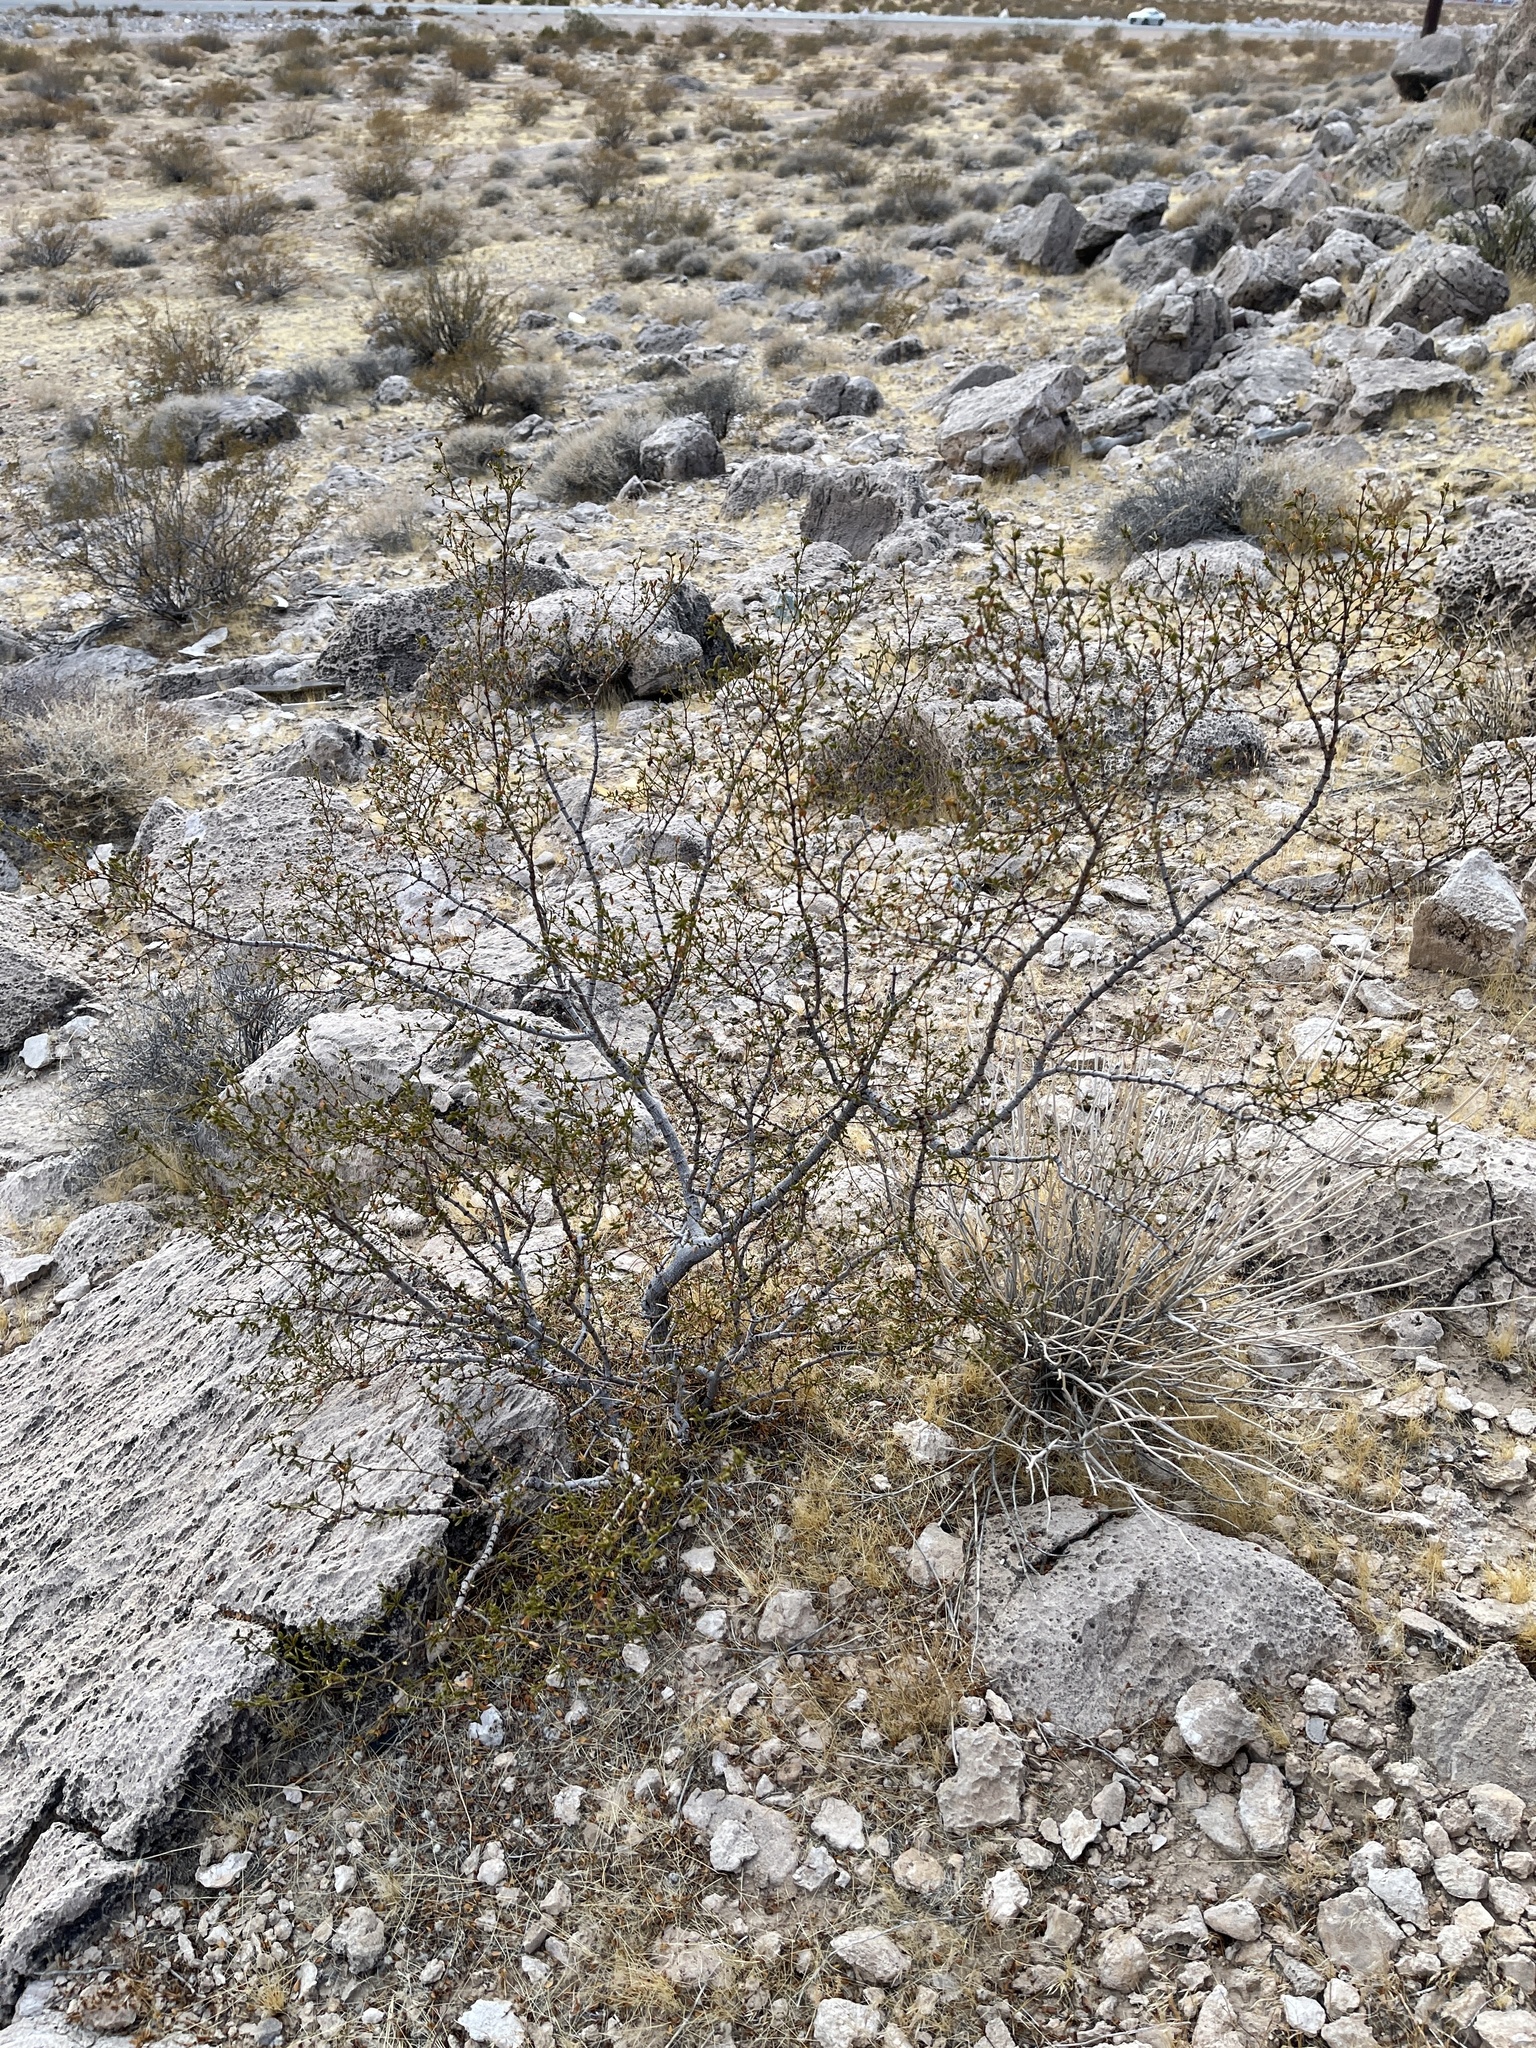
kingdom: Plantae
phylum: Tracheophyta
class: Magnoliopsida
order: Zygophyllales
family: Zygophyllaceae
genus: Larrea
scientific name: Larrea tridentata
